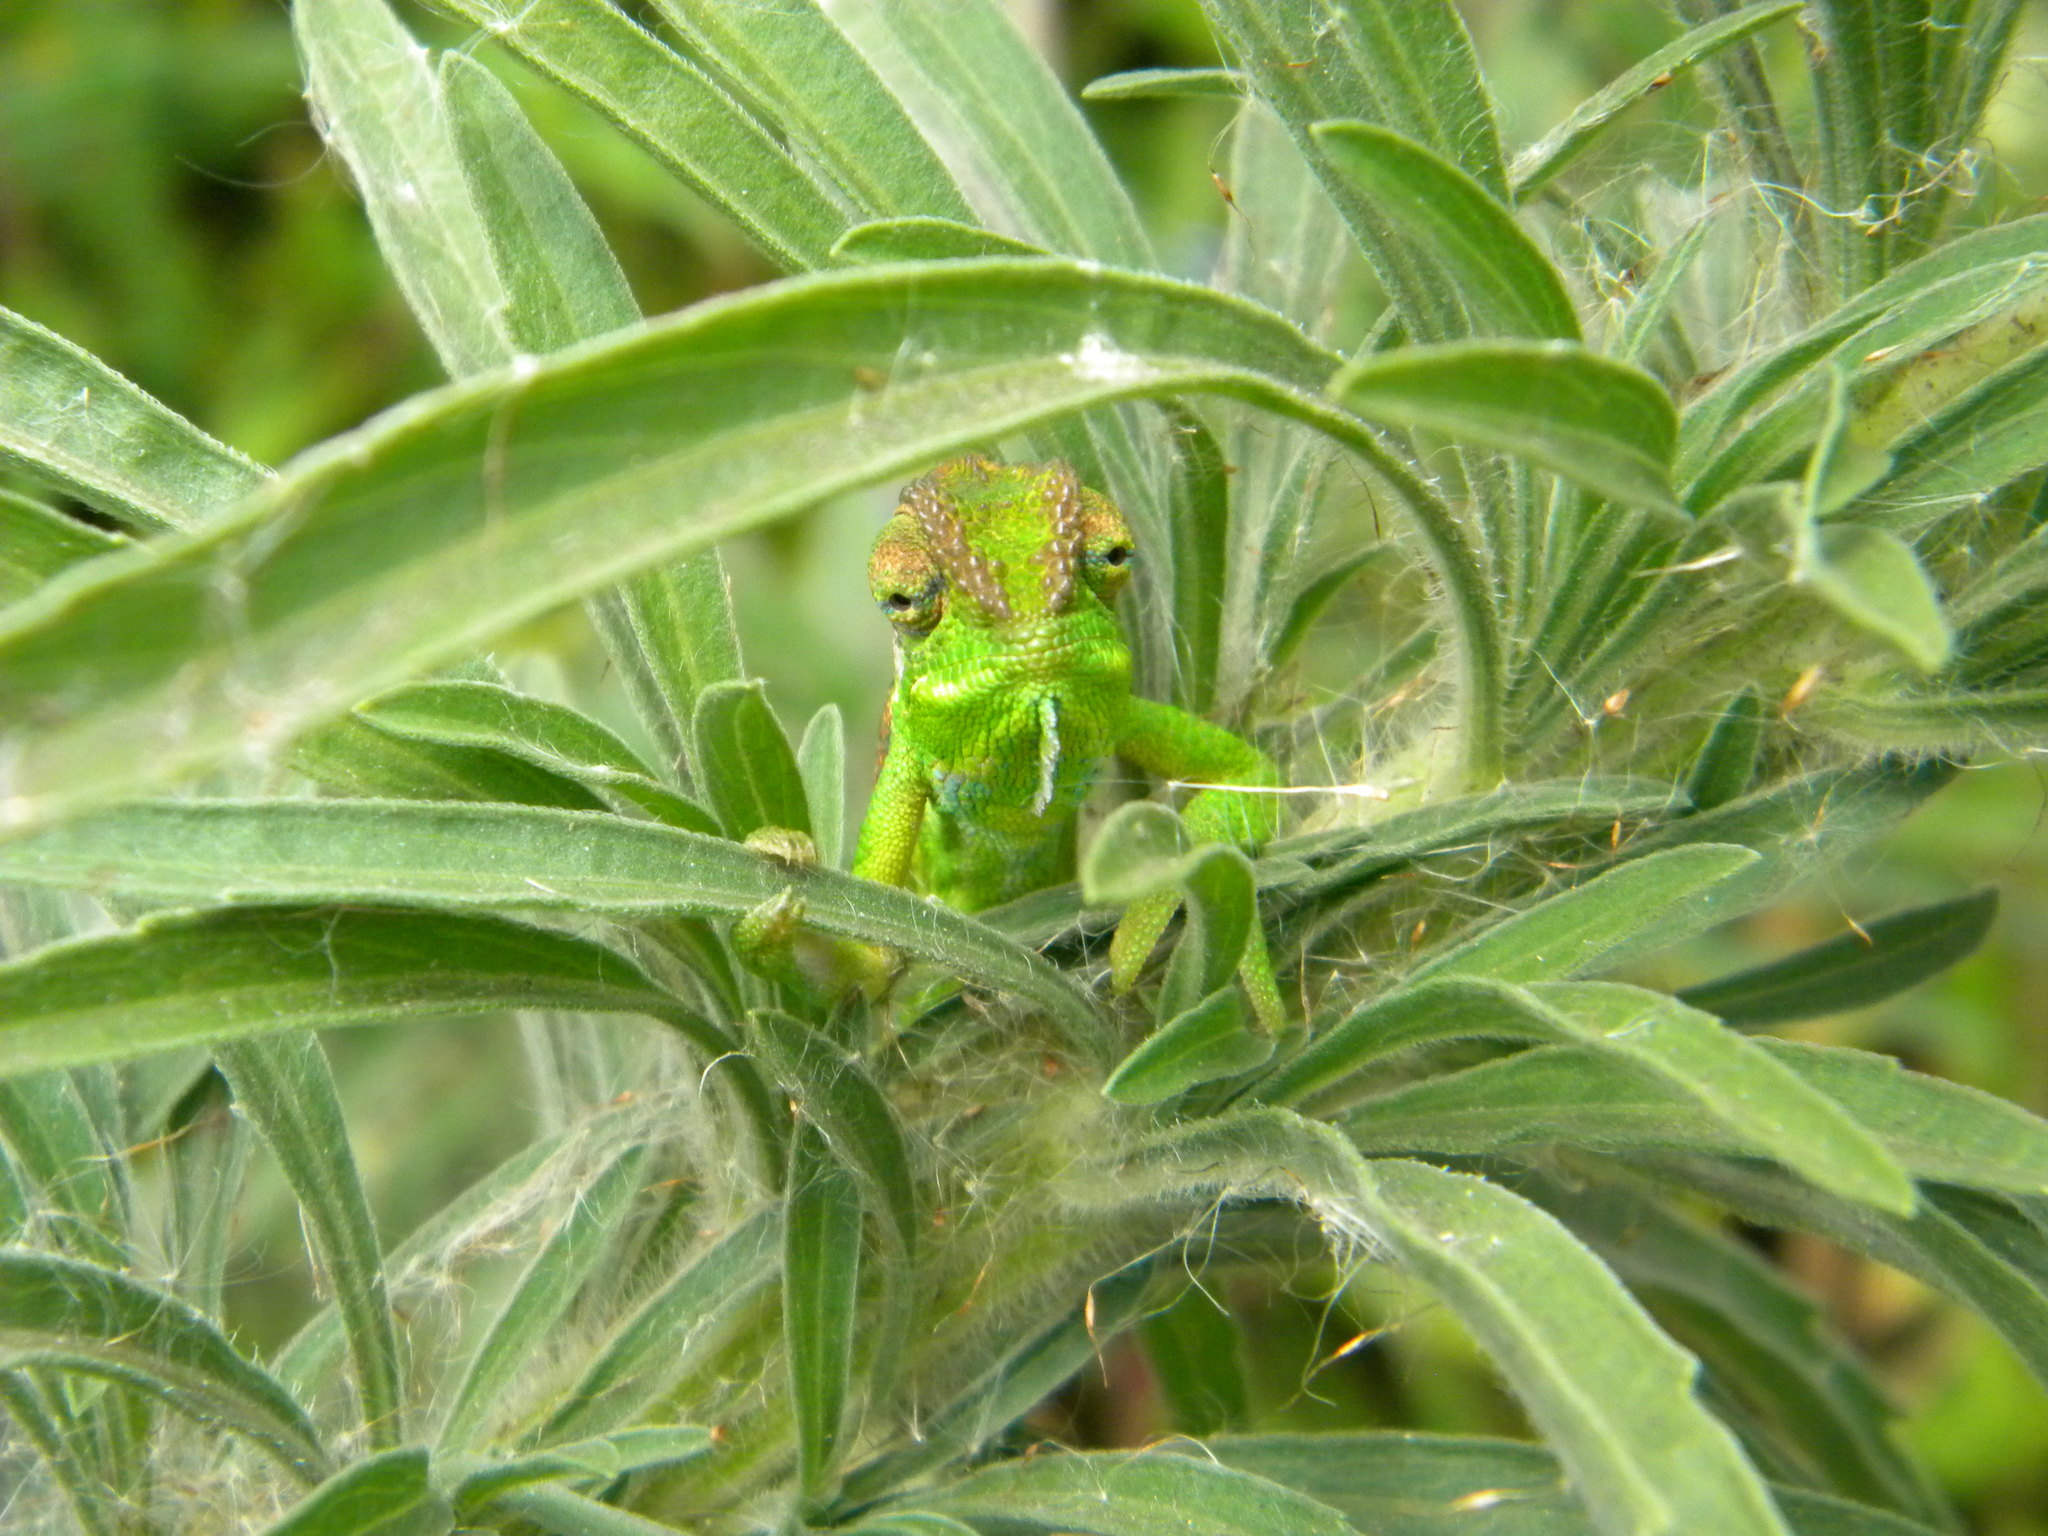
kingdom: Animalia
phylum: Chordata
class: Squamata
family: Chamaeleonidae
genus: Bradypodion
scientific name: Bradypodion pumilum
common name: Cape dwarf chameleon
